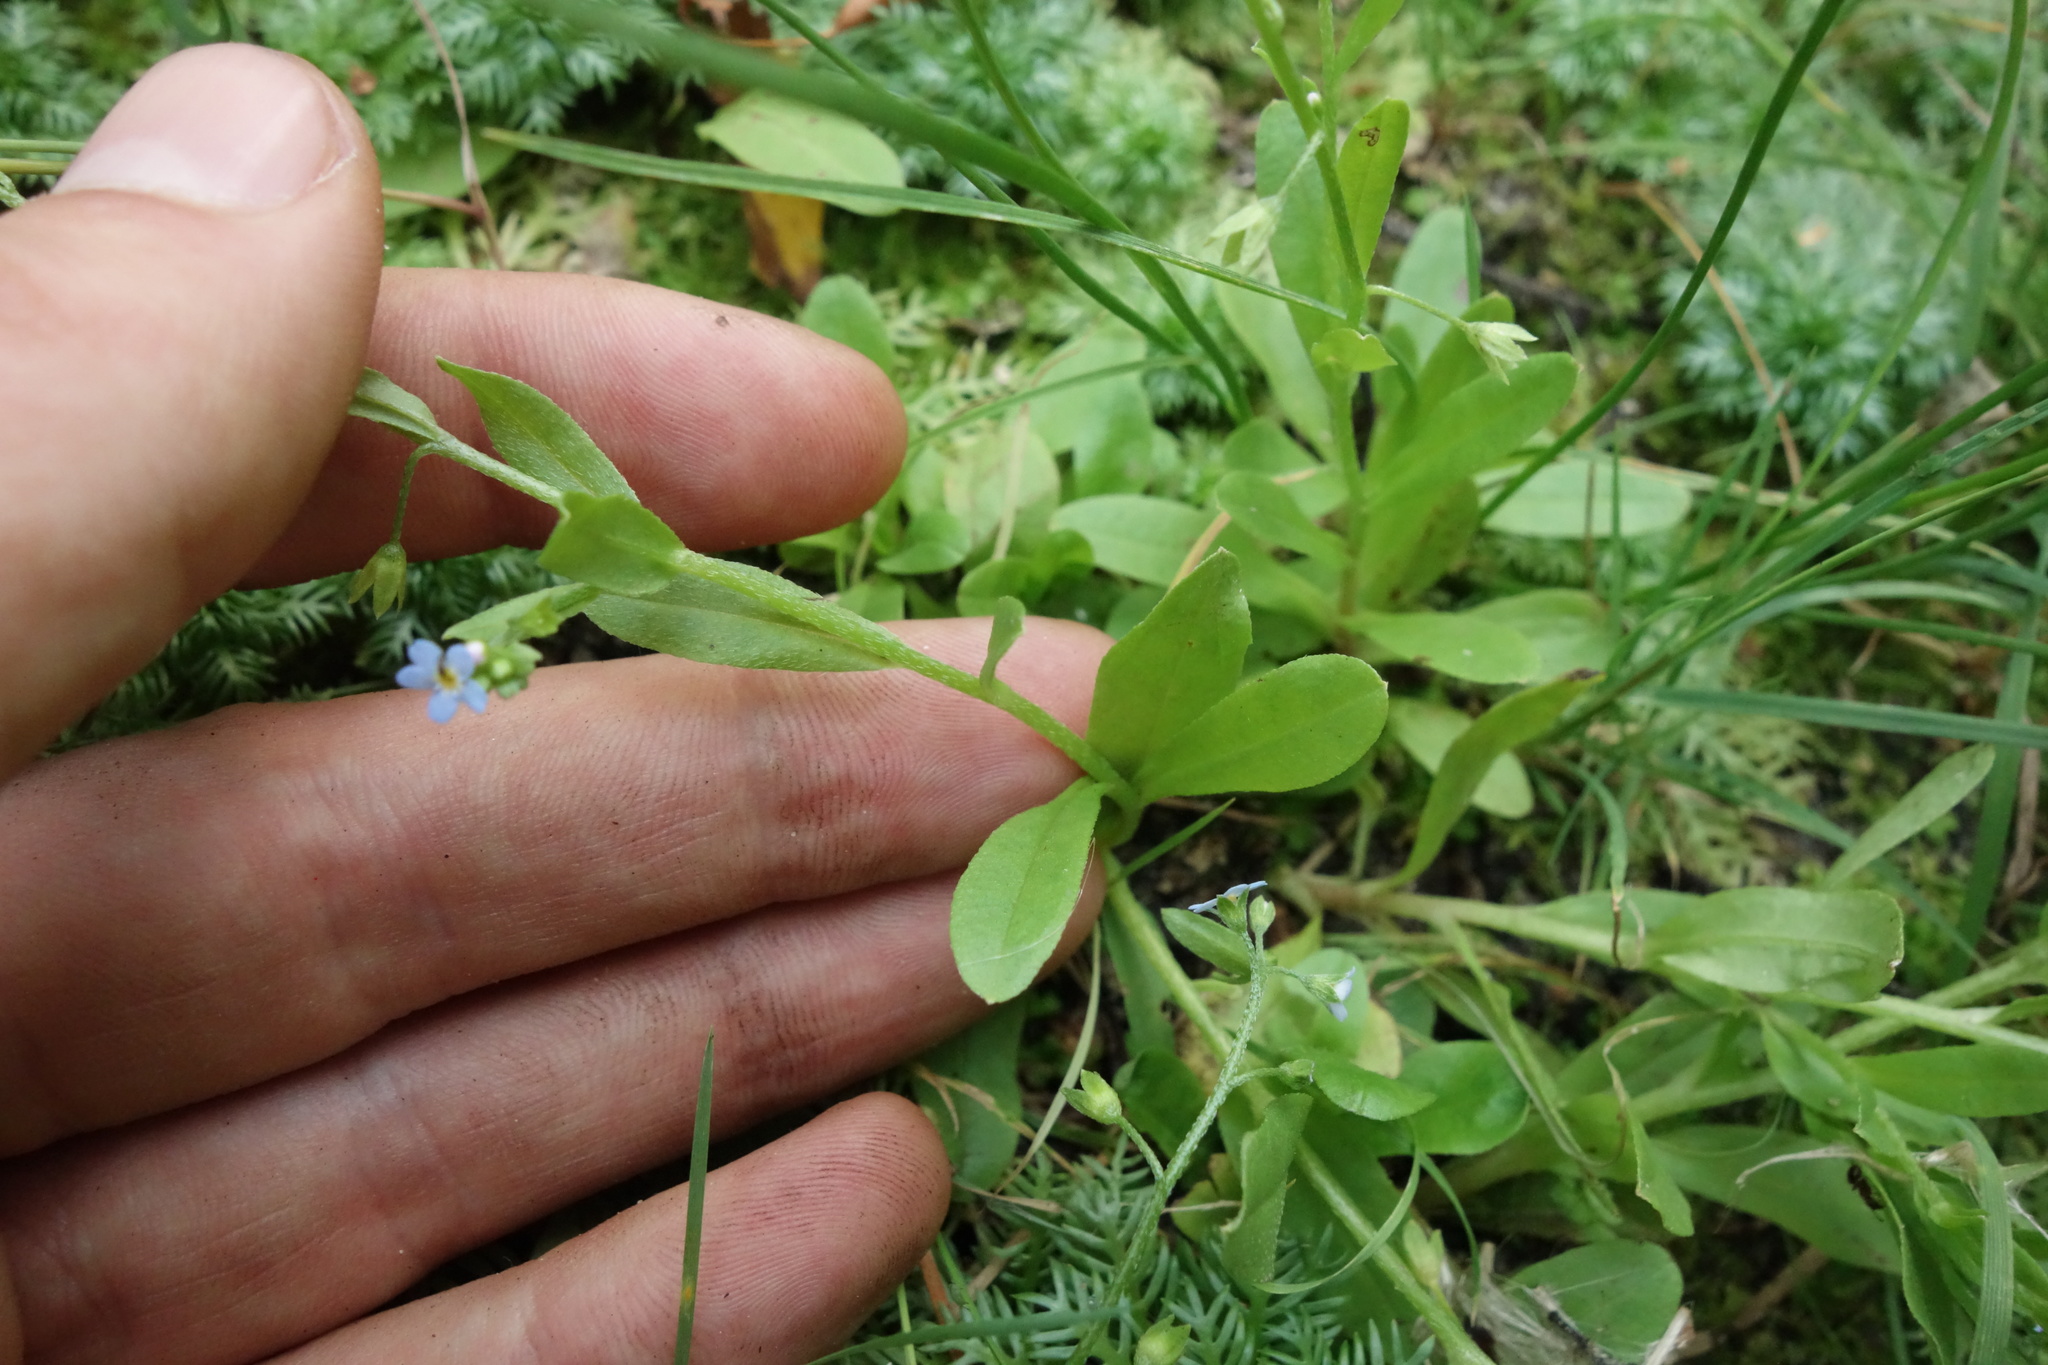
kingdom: Plantae
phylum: Tracheophyta
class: Magnoliopsida
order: Boraginales
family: Boraginaceae
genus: Myosotis
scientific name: Myosotis laxa
